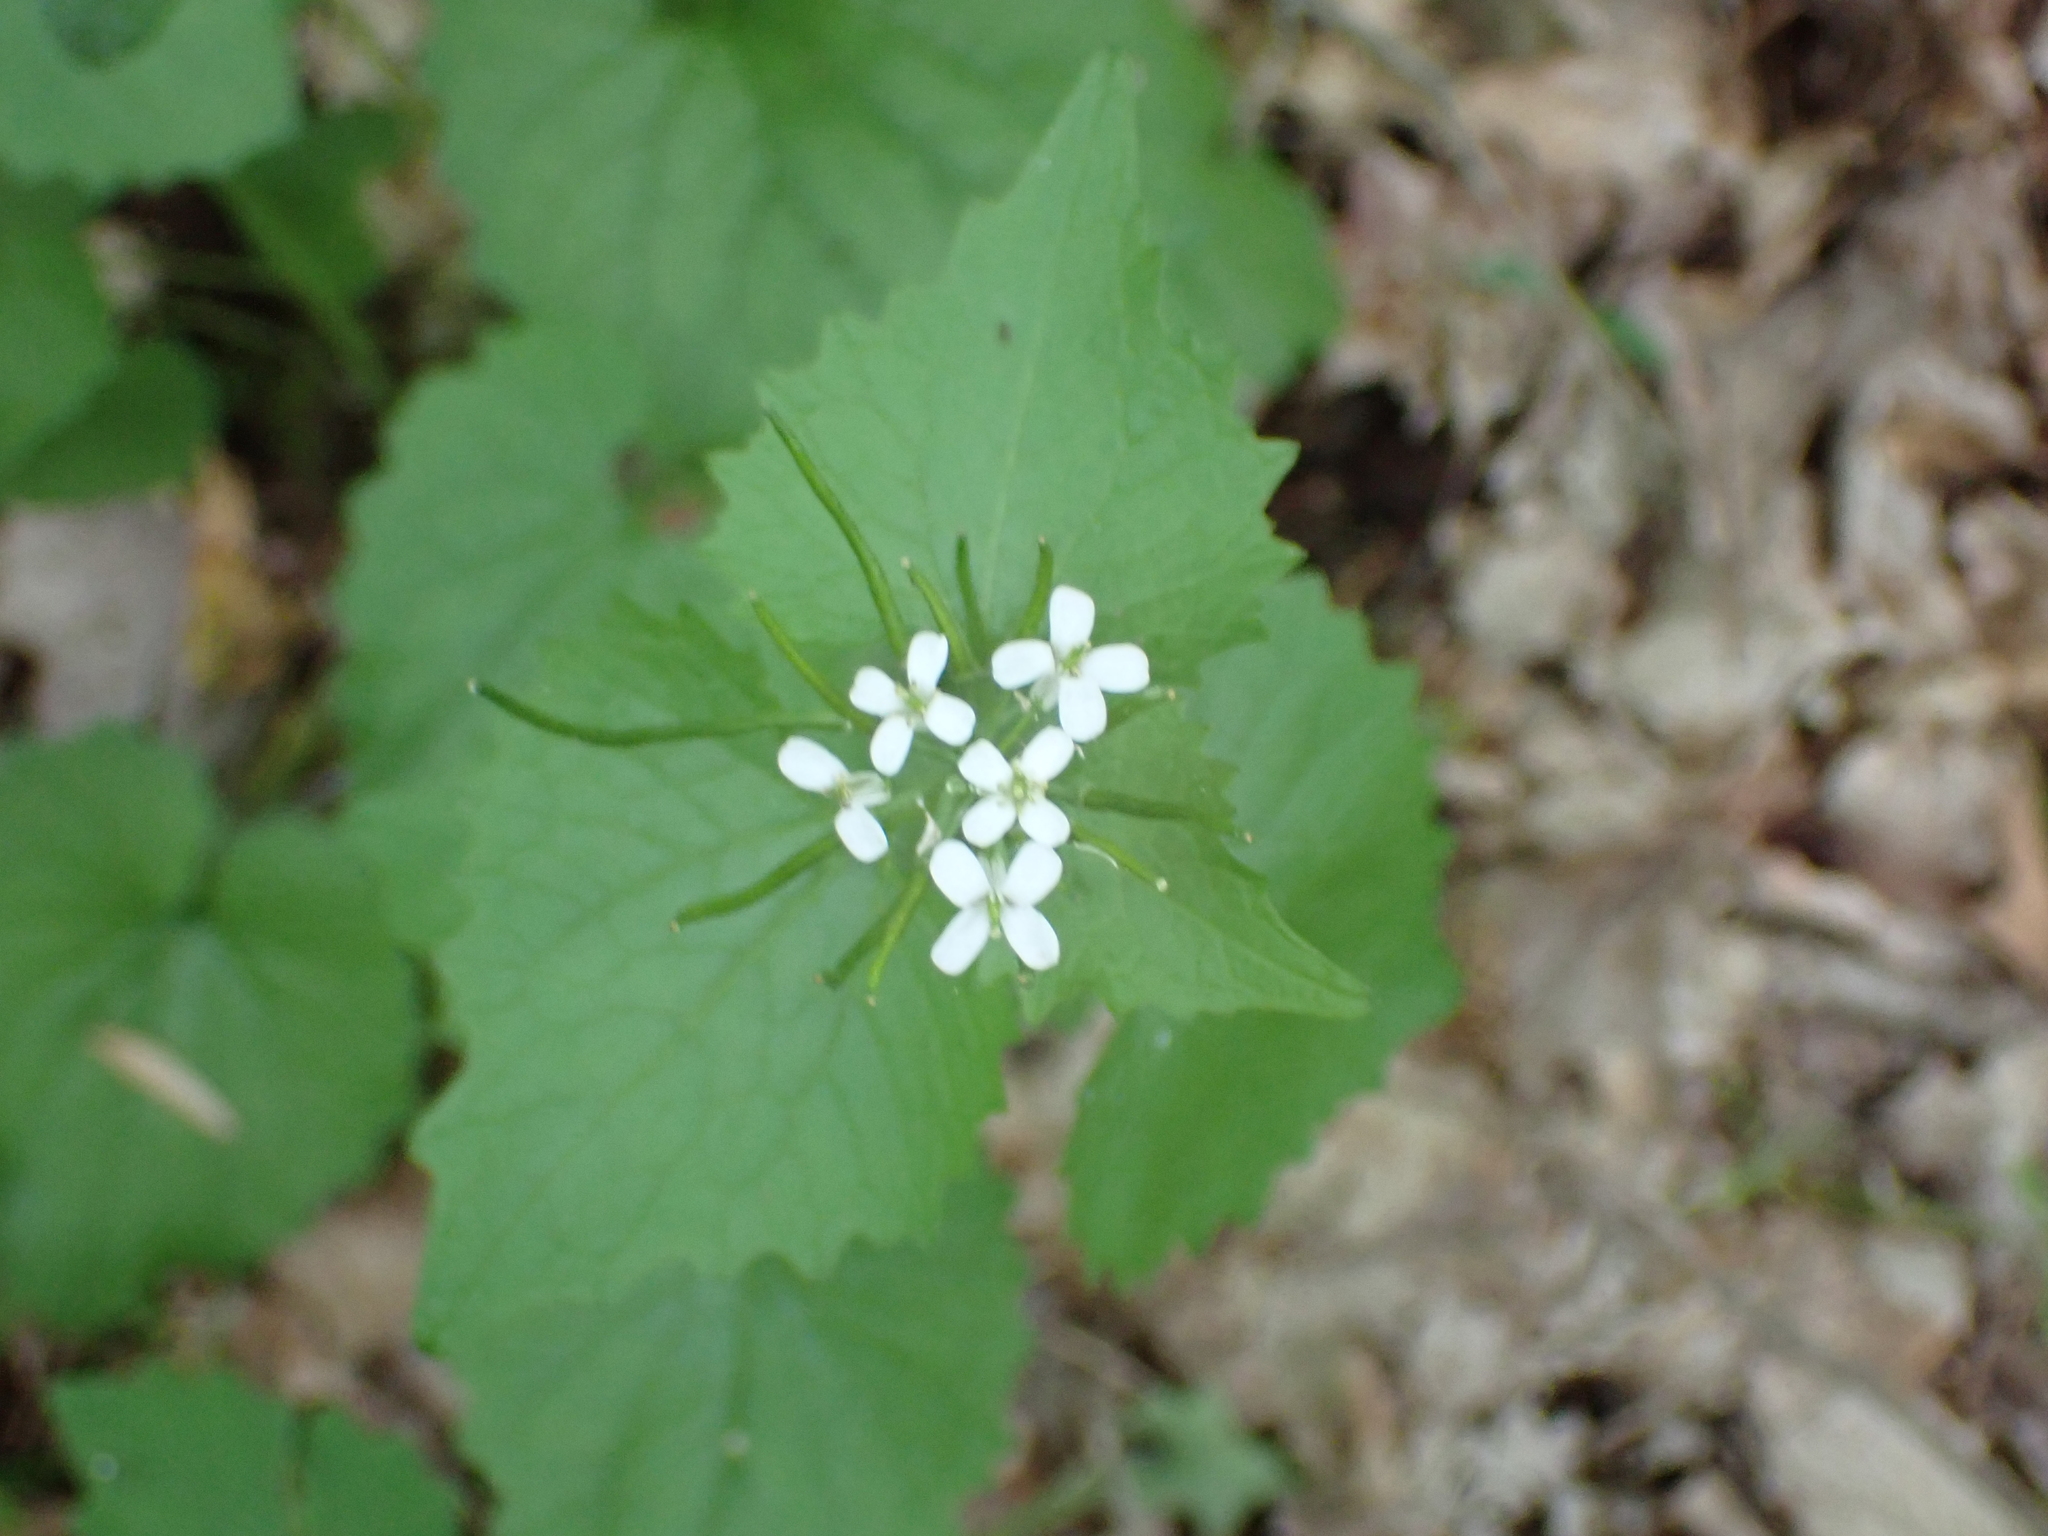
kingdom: Plantae
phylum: Tracheophyta
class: Magnoliopsida
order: Brassicales
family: Brassicaceae
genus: Alliaria
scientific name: Alliaria petiolata
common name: Garlic mustard
